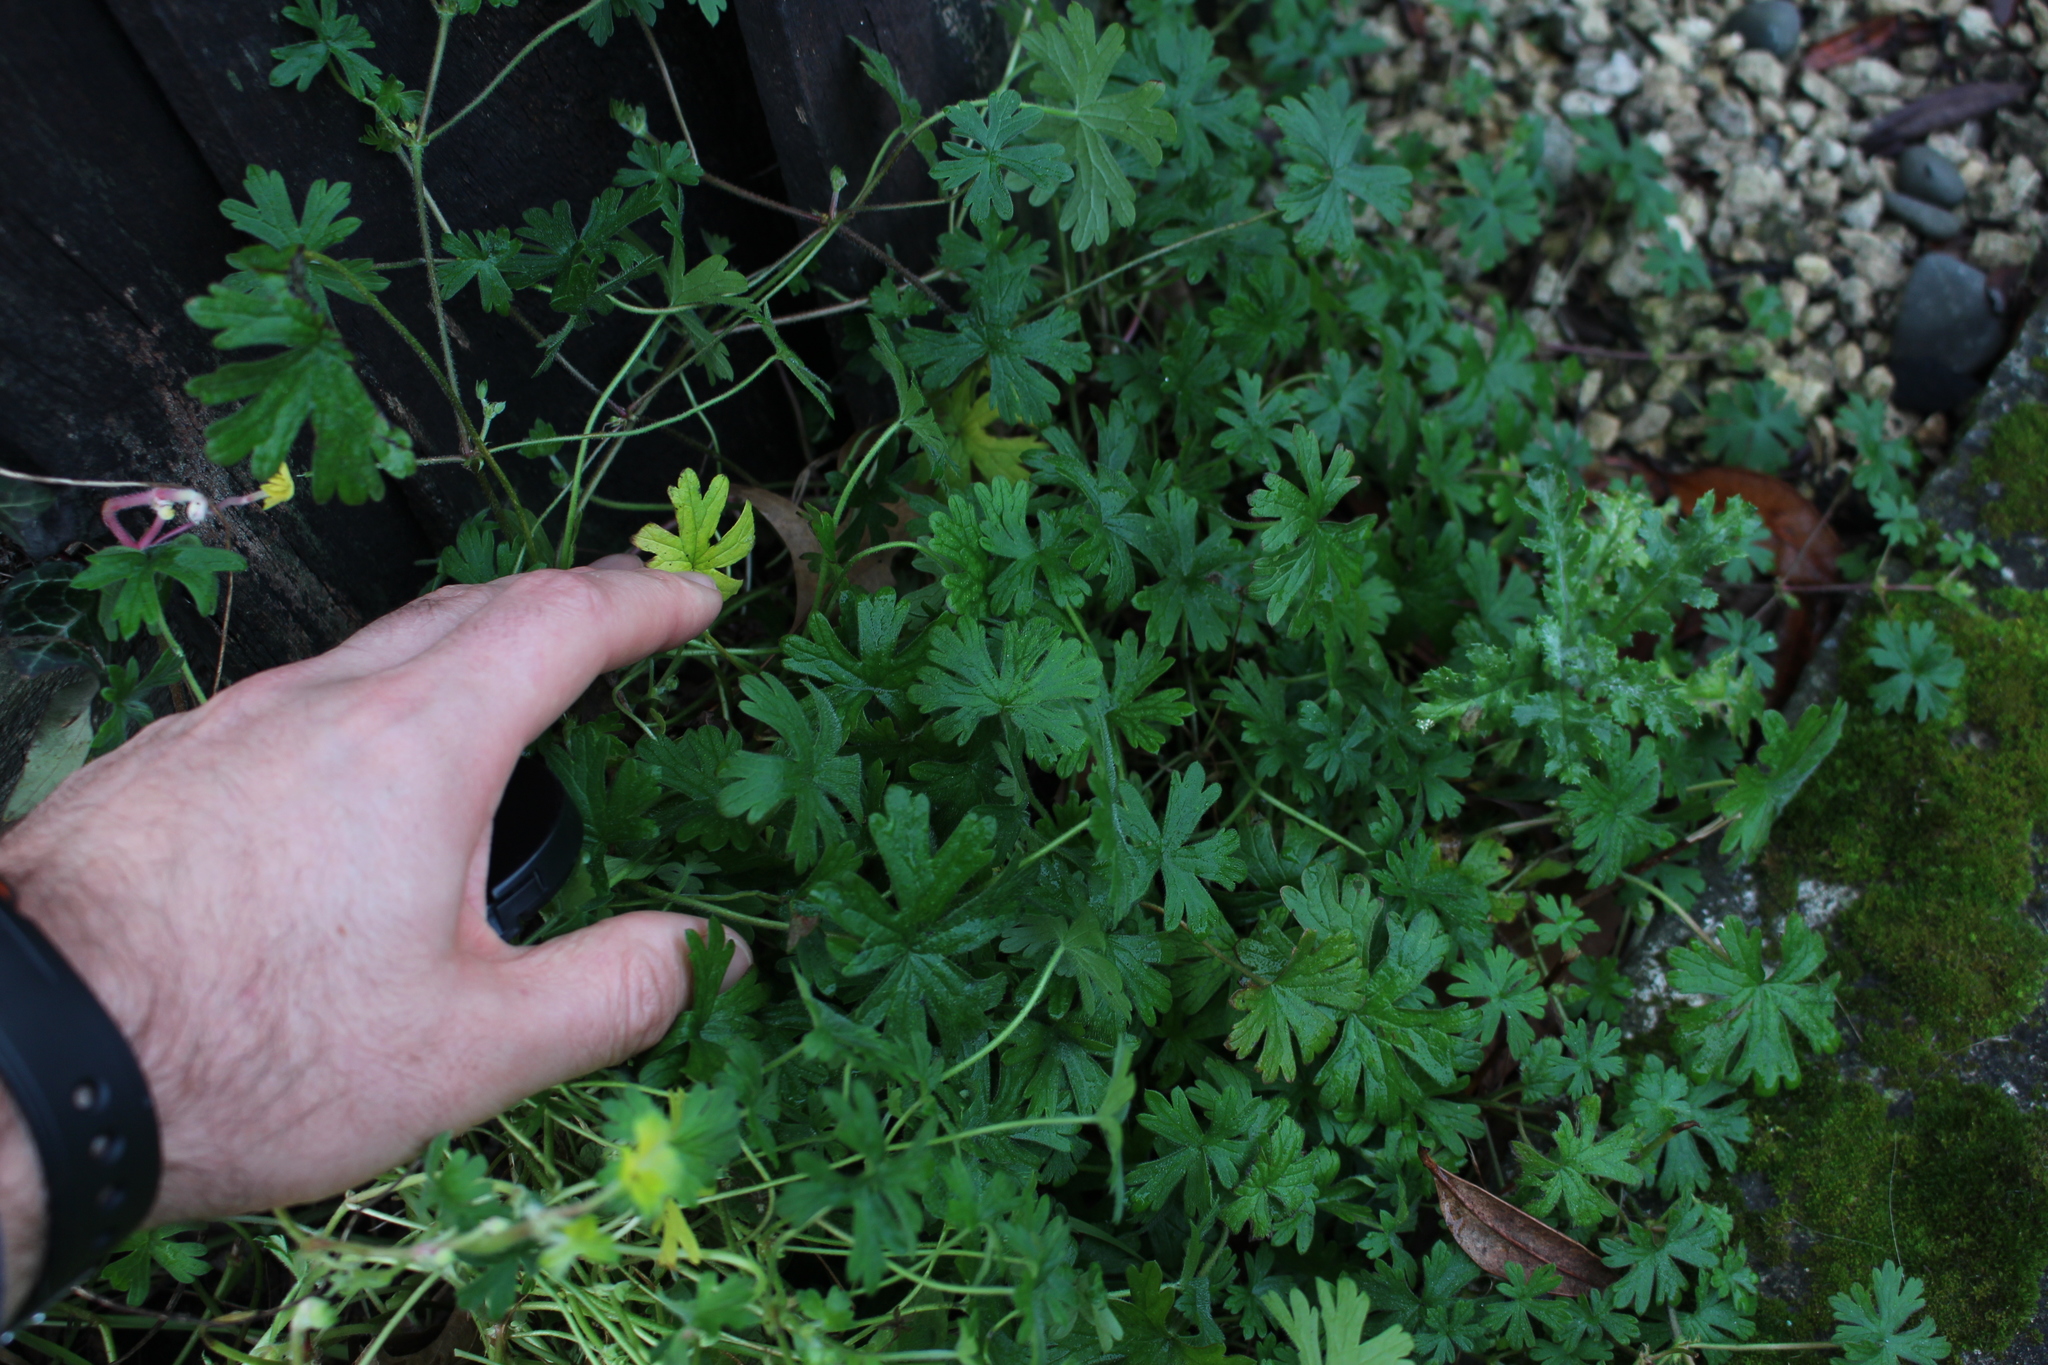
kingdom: Plantae
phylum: Tracheophyta
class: Magnoliopsida
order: Geraniales
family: Geraniaceae
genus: Geranium
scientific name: Geranium dissectum
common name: Cut-leaved crane's-bill
